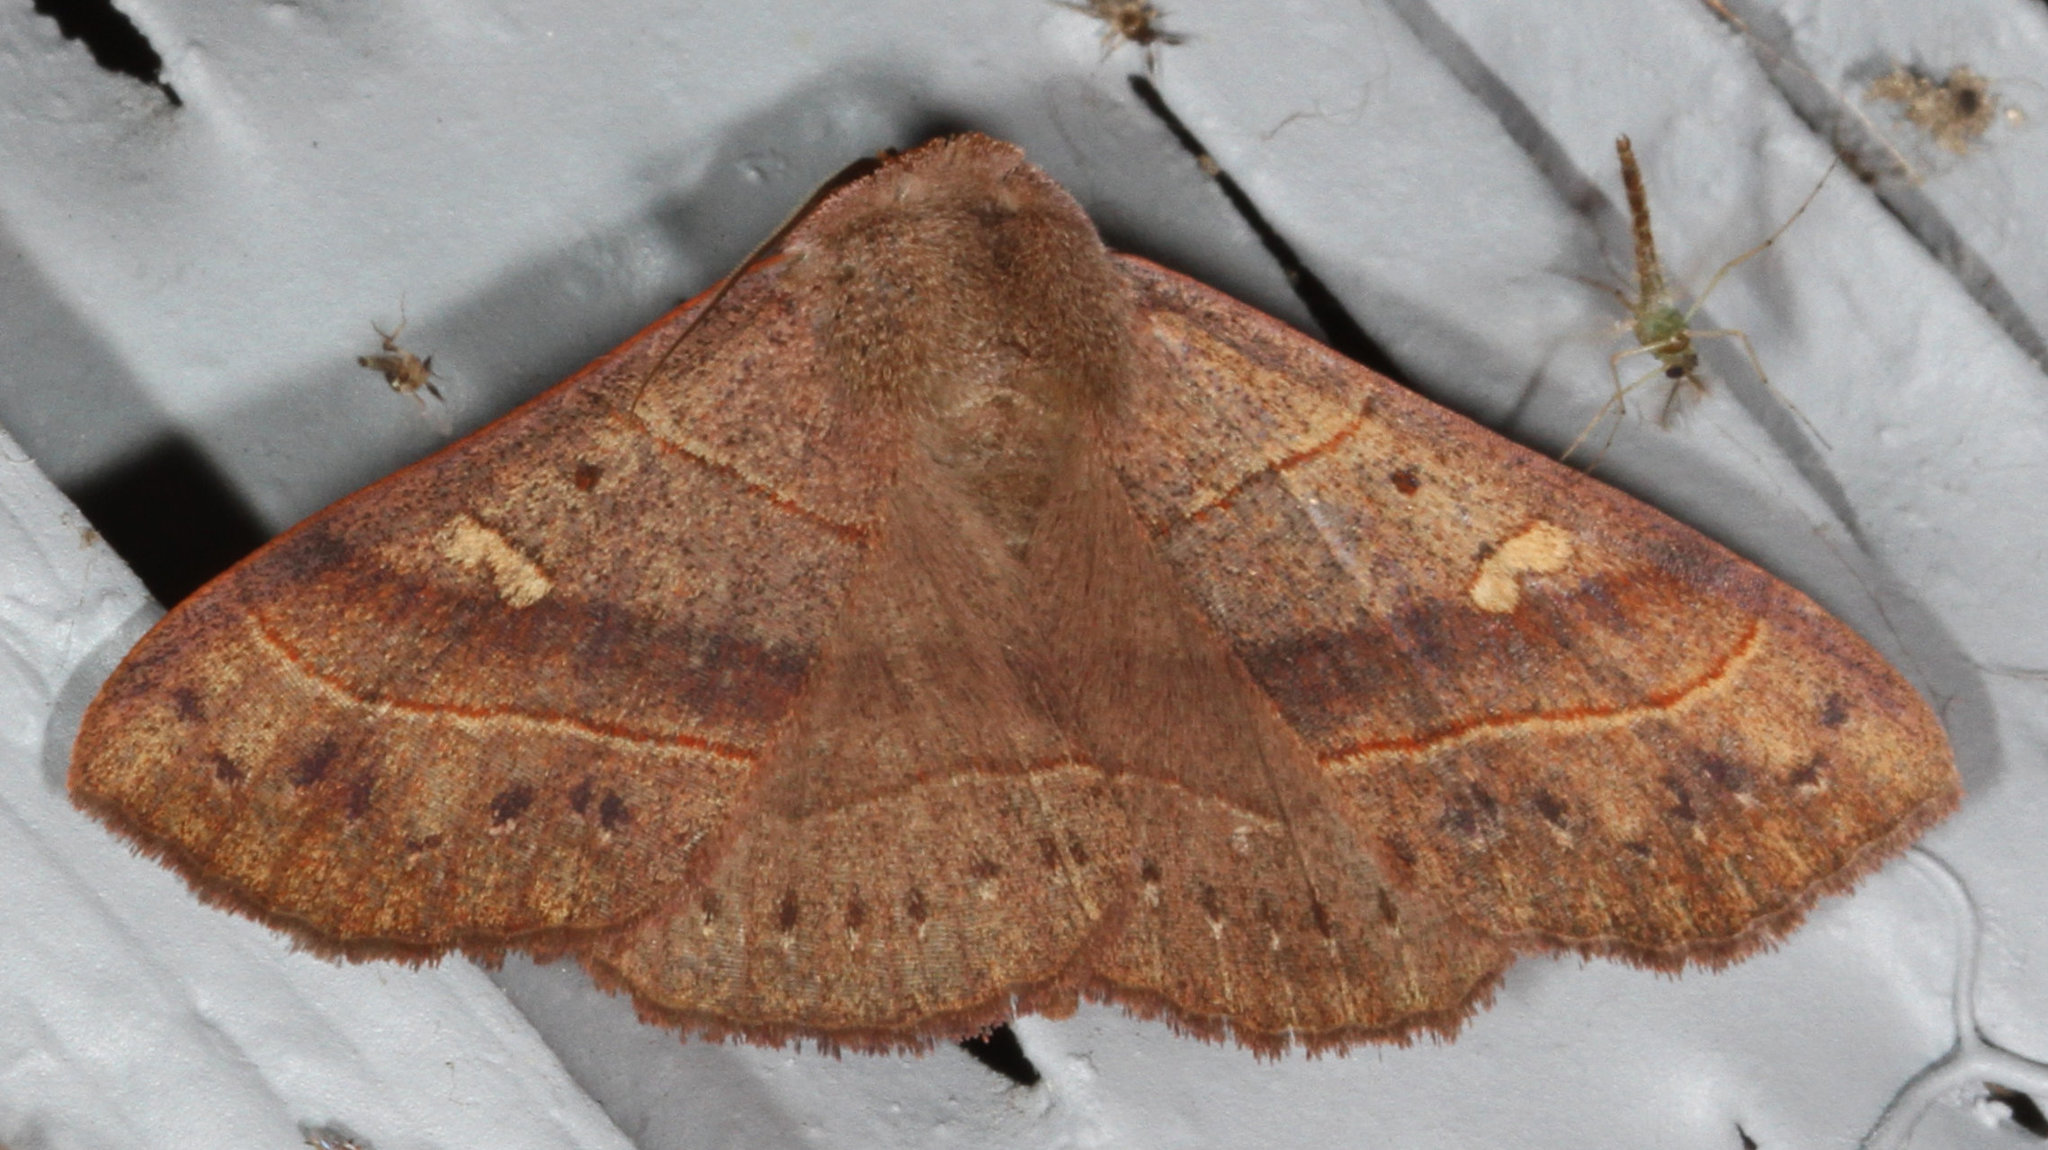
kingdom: Animalia
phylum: Arthropoda
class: Insecta
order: Lepidoptera
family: Erebidae
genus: Panopoda
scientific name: Panopoda rufimargo
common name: Red-lined panopoda moth
